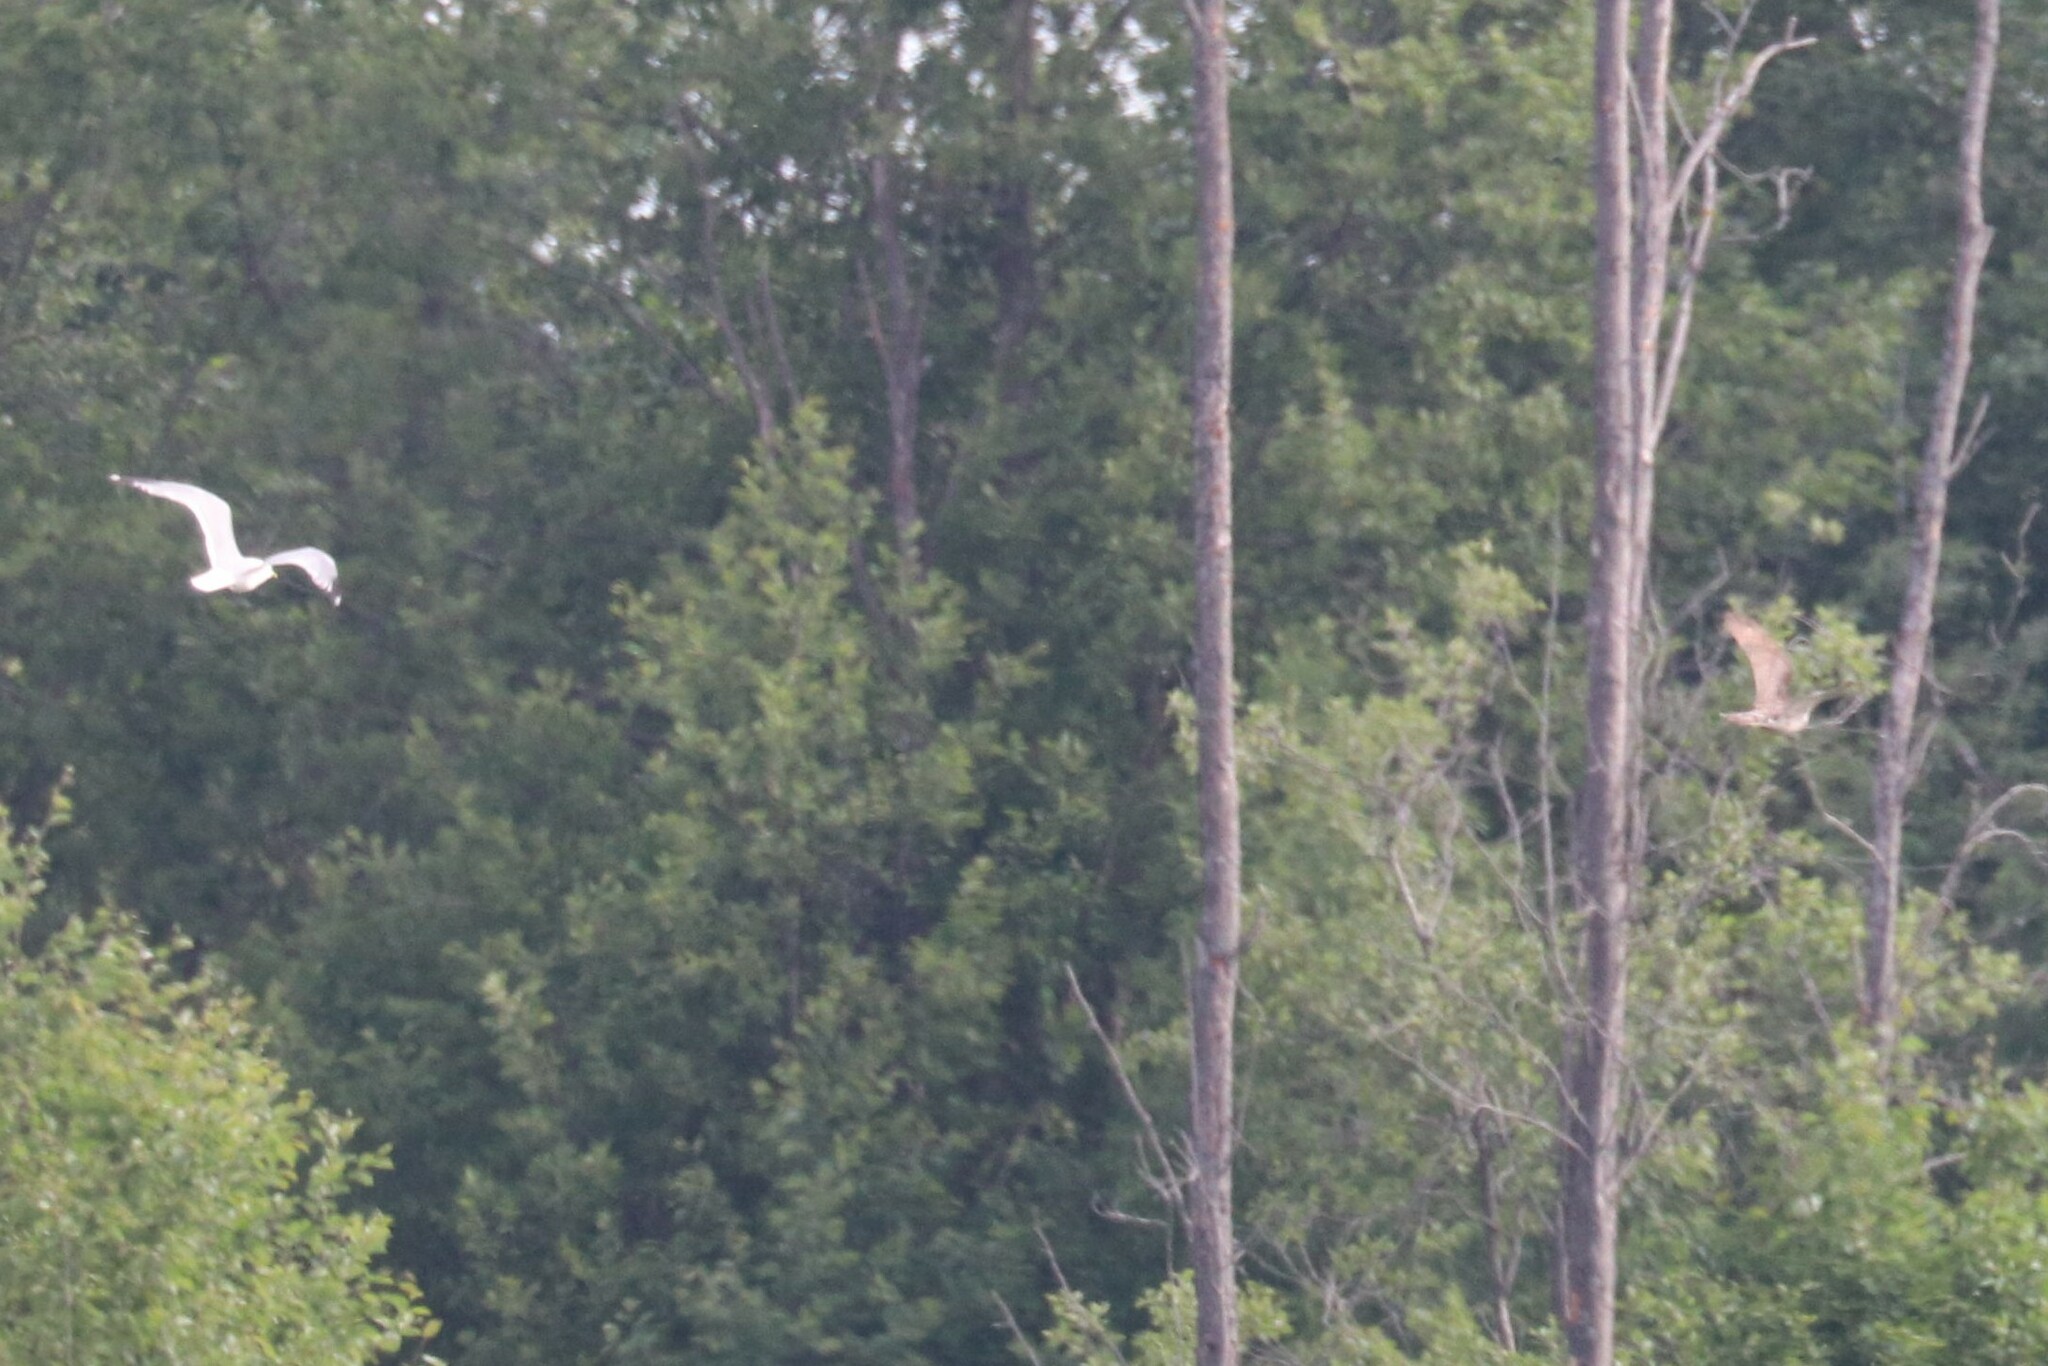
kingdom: Animalia
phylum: Chordata
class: Aves
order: Accipitriformes
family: Accipitridae
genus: Accipiter
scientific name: Accipiter gentilis
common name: Northern goshawk
